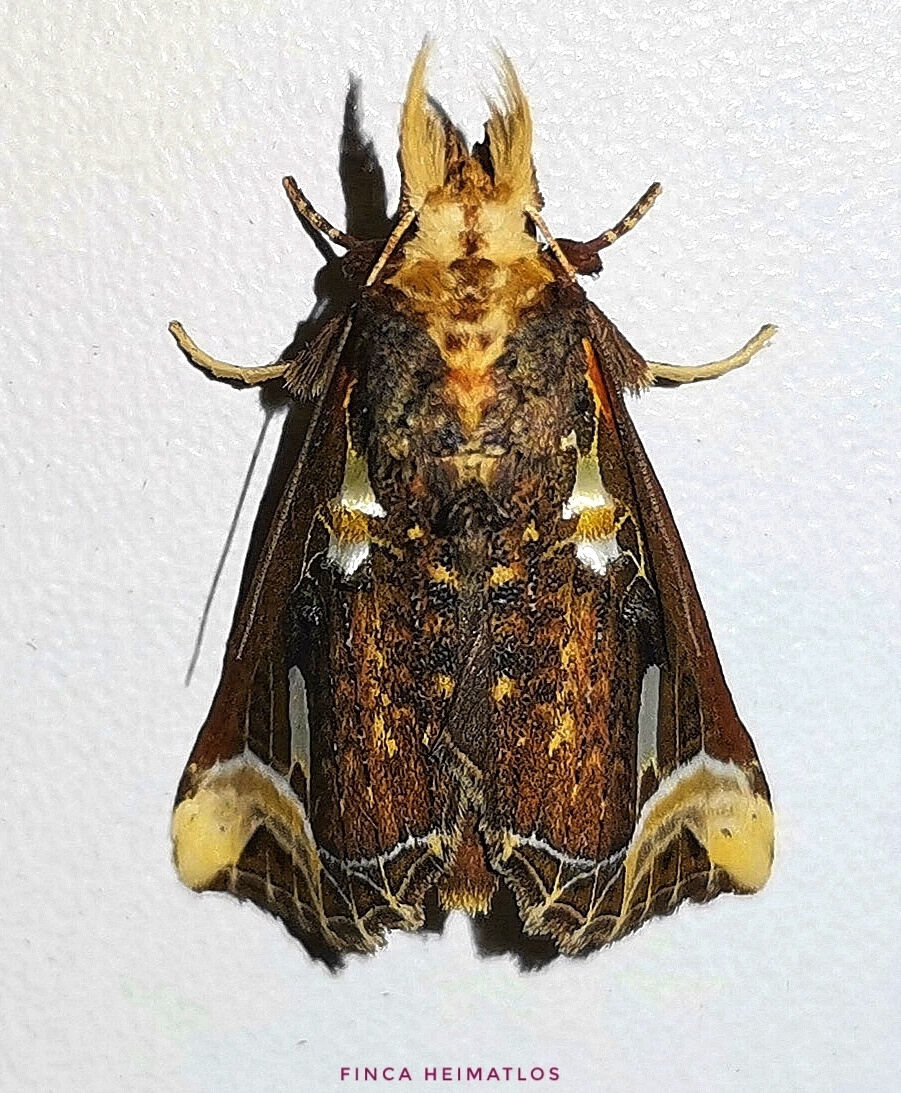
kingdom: Animalia
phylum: Arthropoda
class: Insecta
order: Lepidoptera
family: Notodontidae
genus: Calledema
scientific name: Calledema argenta
